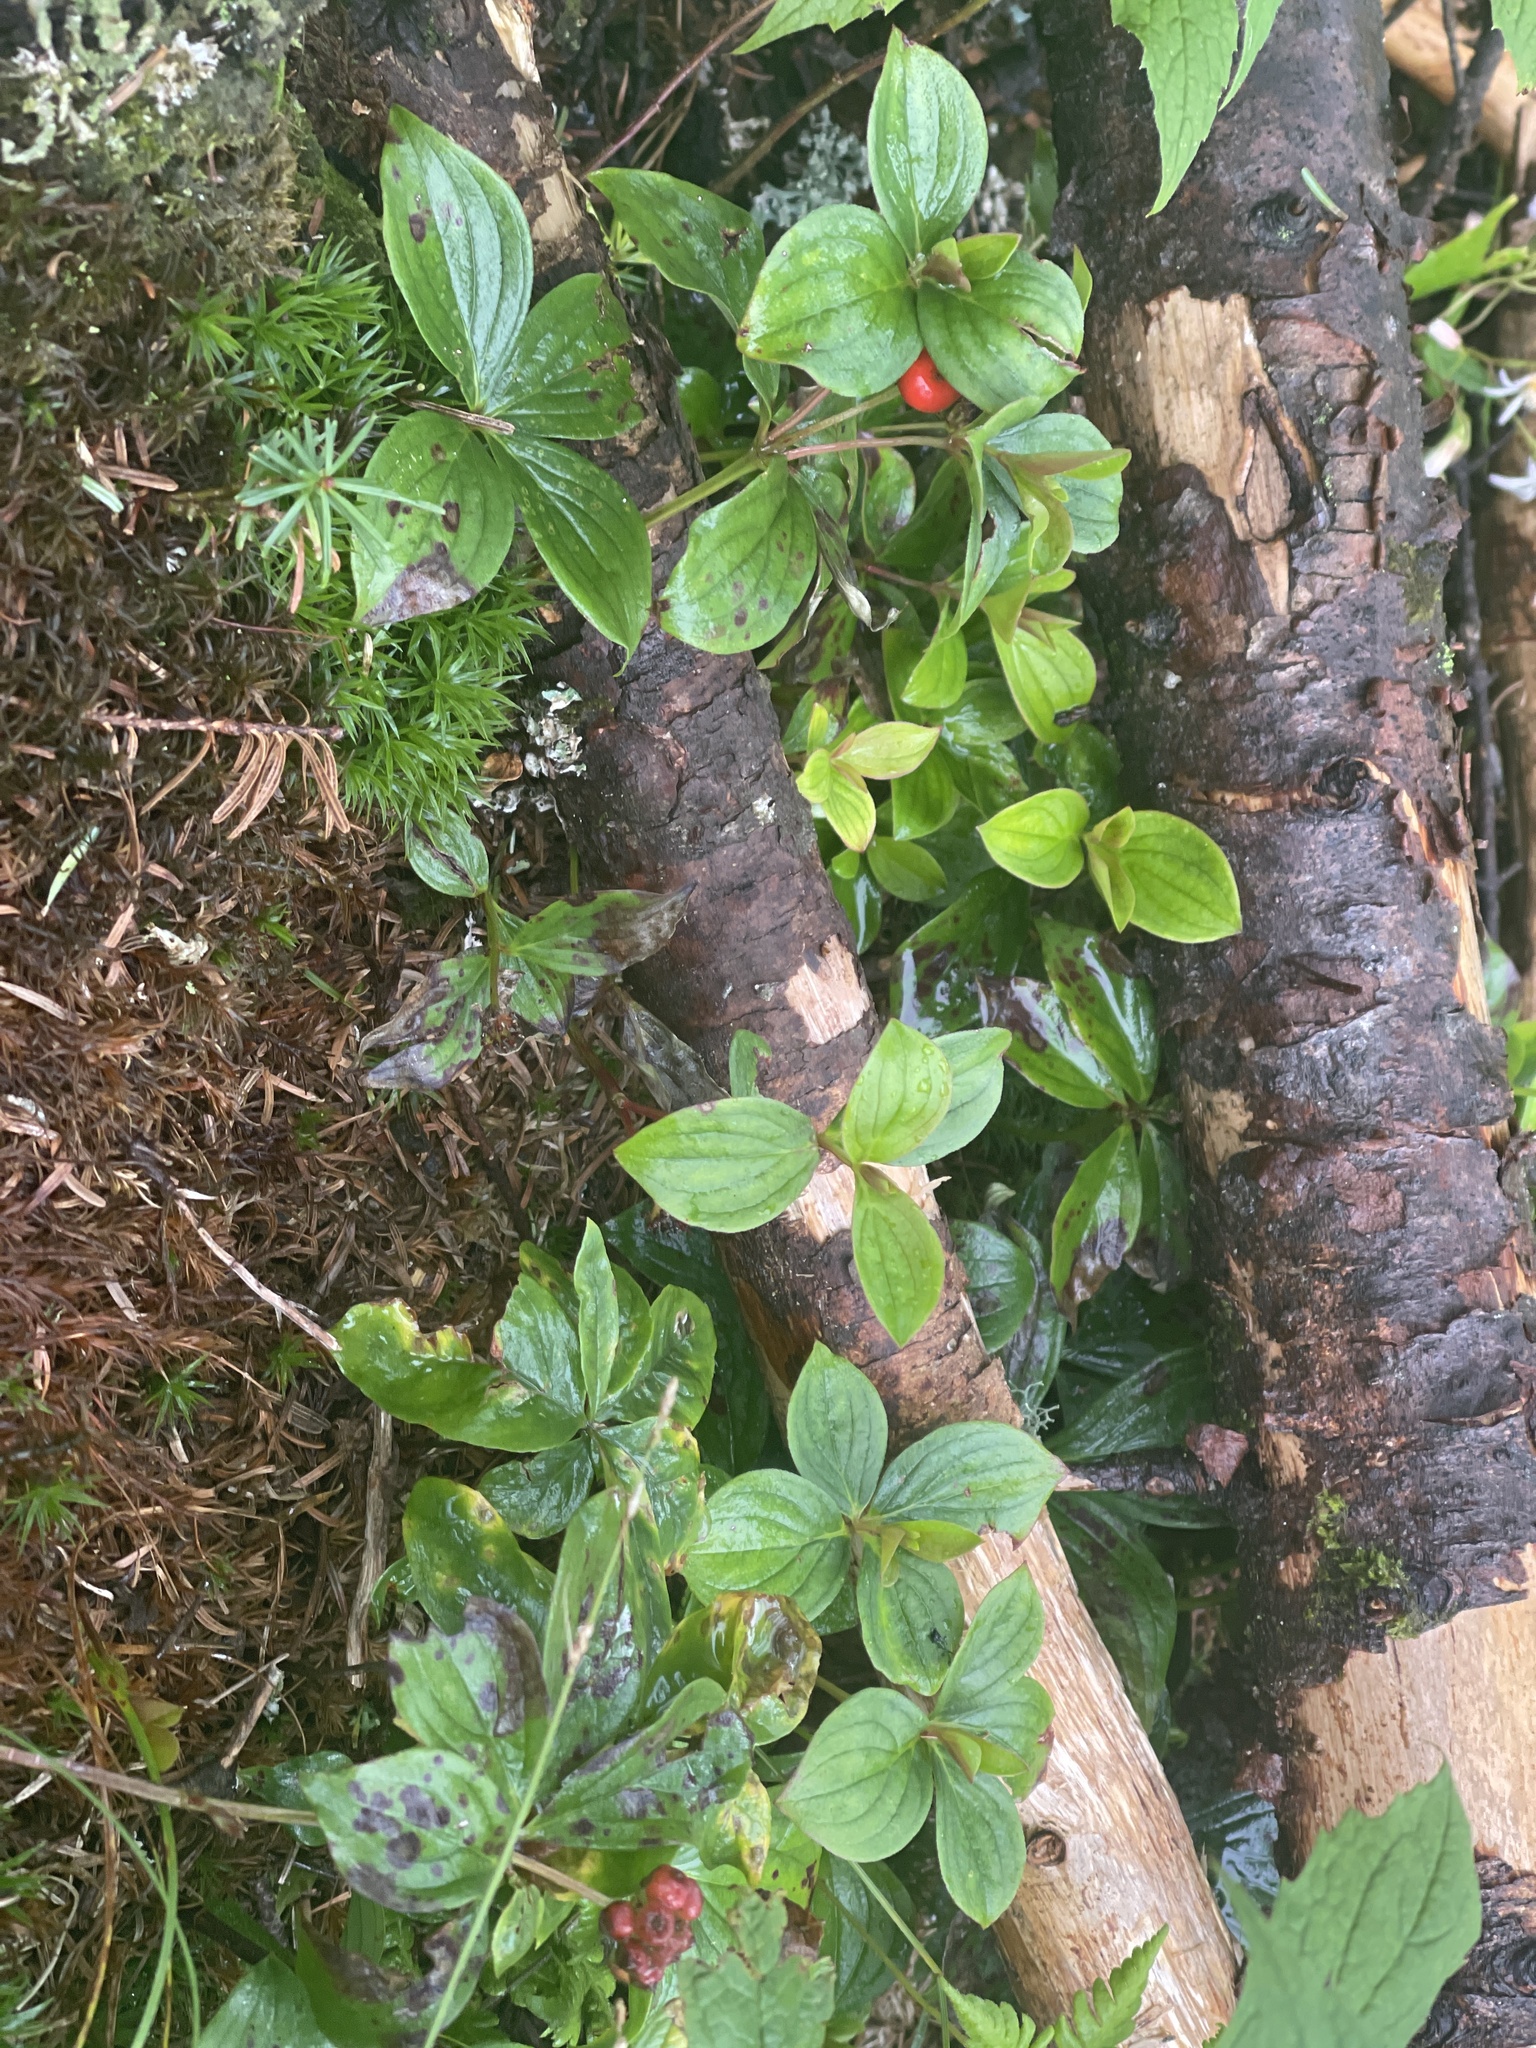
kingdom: Plantae
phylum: Tracheophyta
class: Magnoliopsida
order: Cornales
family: Cornaceae
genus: Cornus
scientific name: Cornus canadensis
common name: Creeping dogwood
